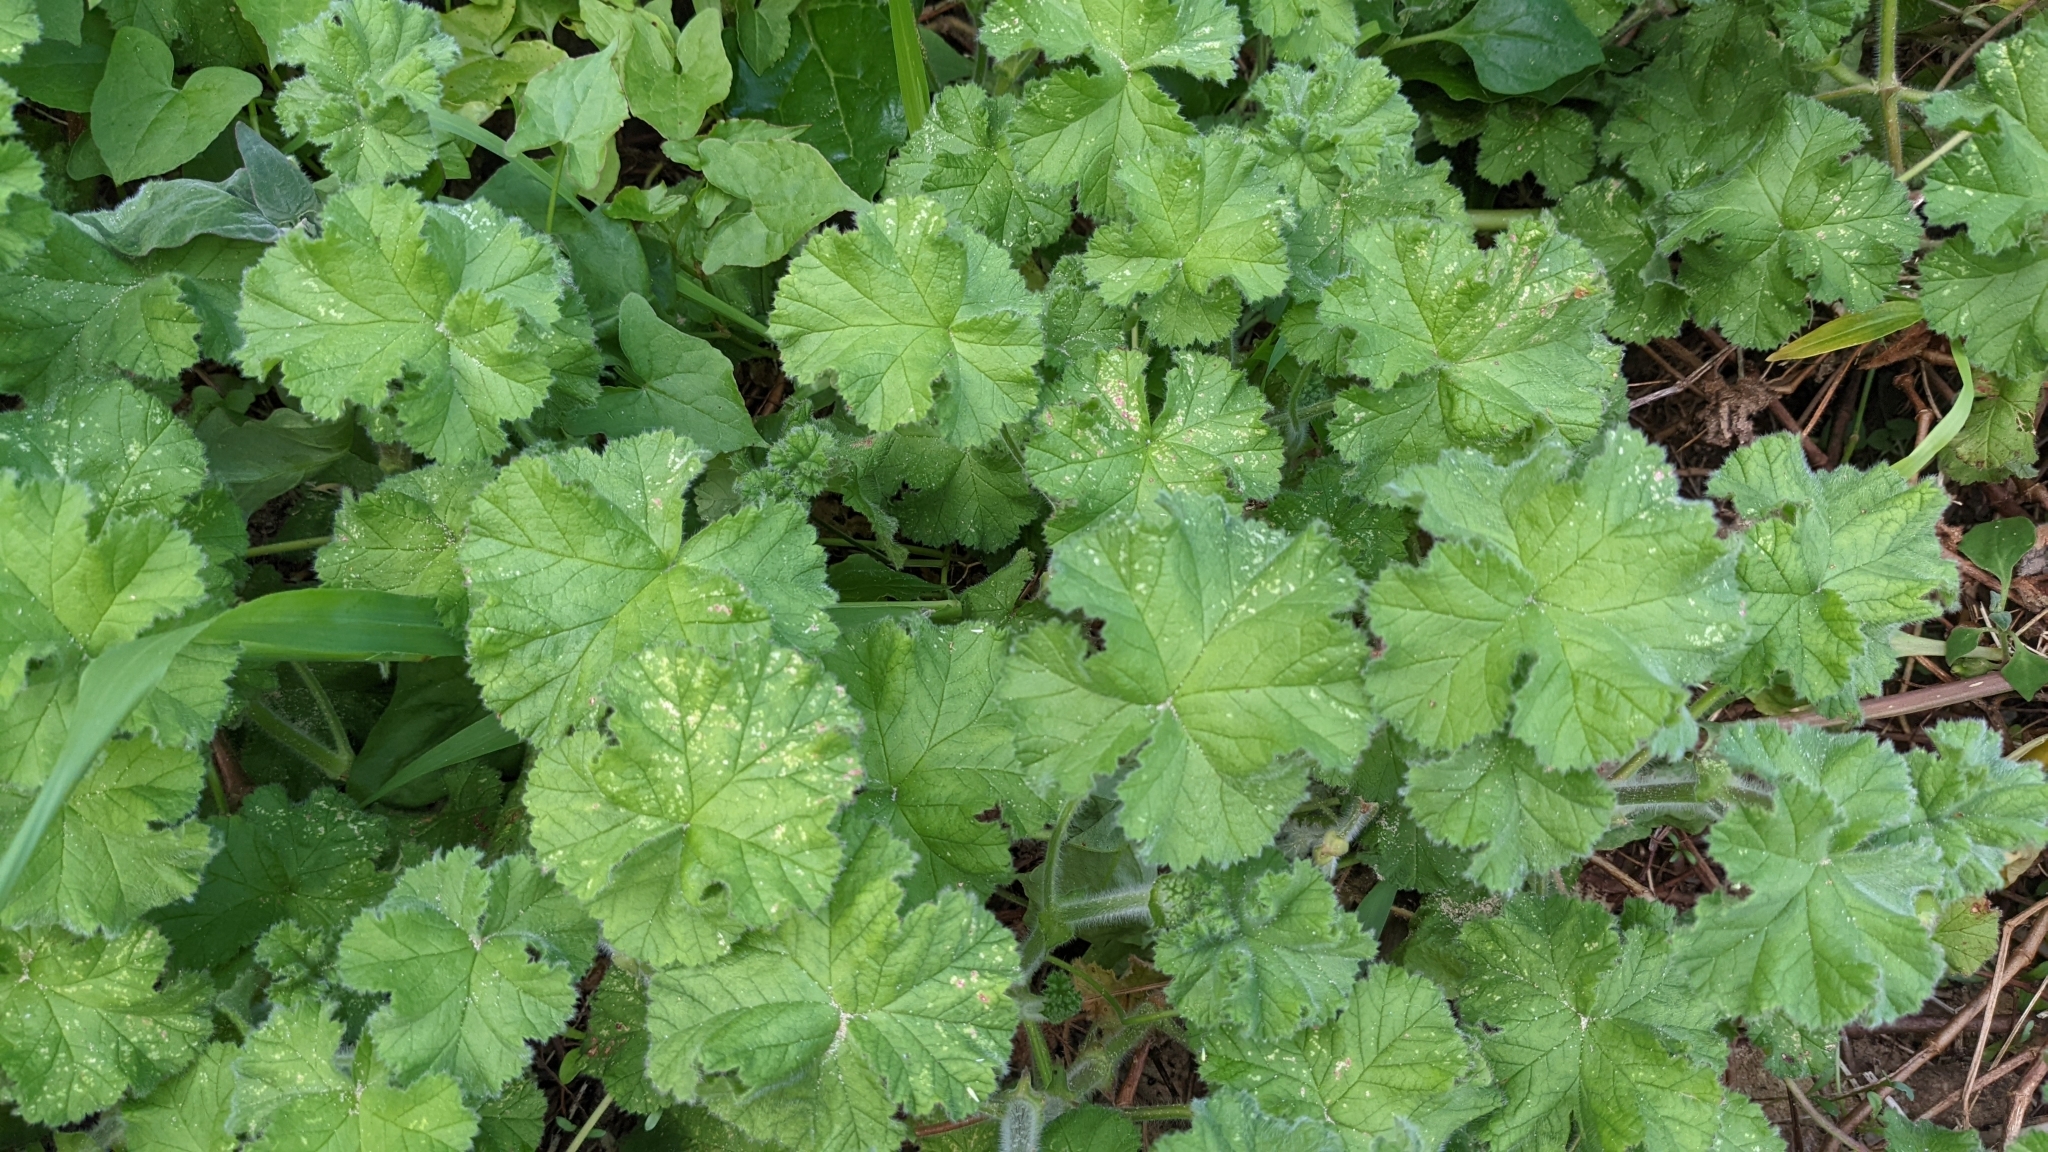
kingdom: Plantae
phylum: Tracheophyta
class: Magnoliopsida
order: Geraniales
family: Geraniaceae
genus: Pelargonium
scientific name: Pelargonium capitatum
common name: Rose scented geranium
